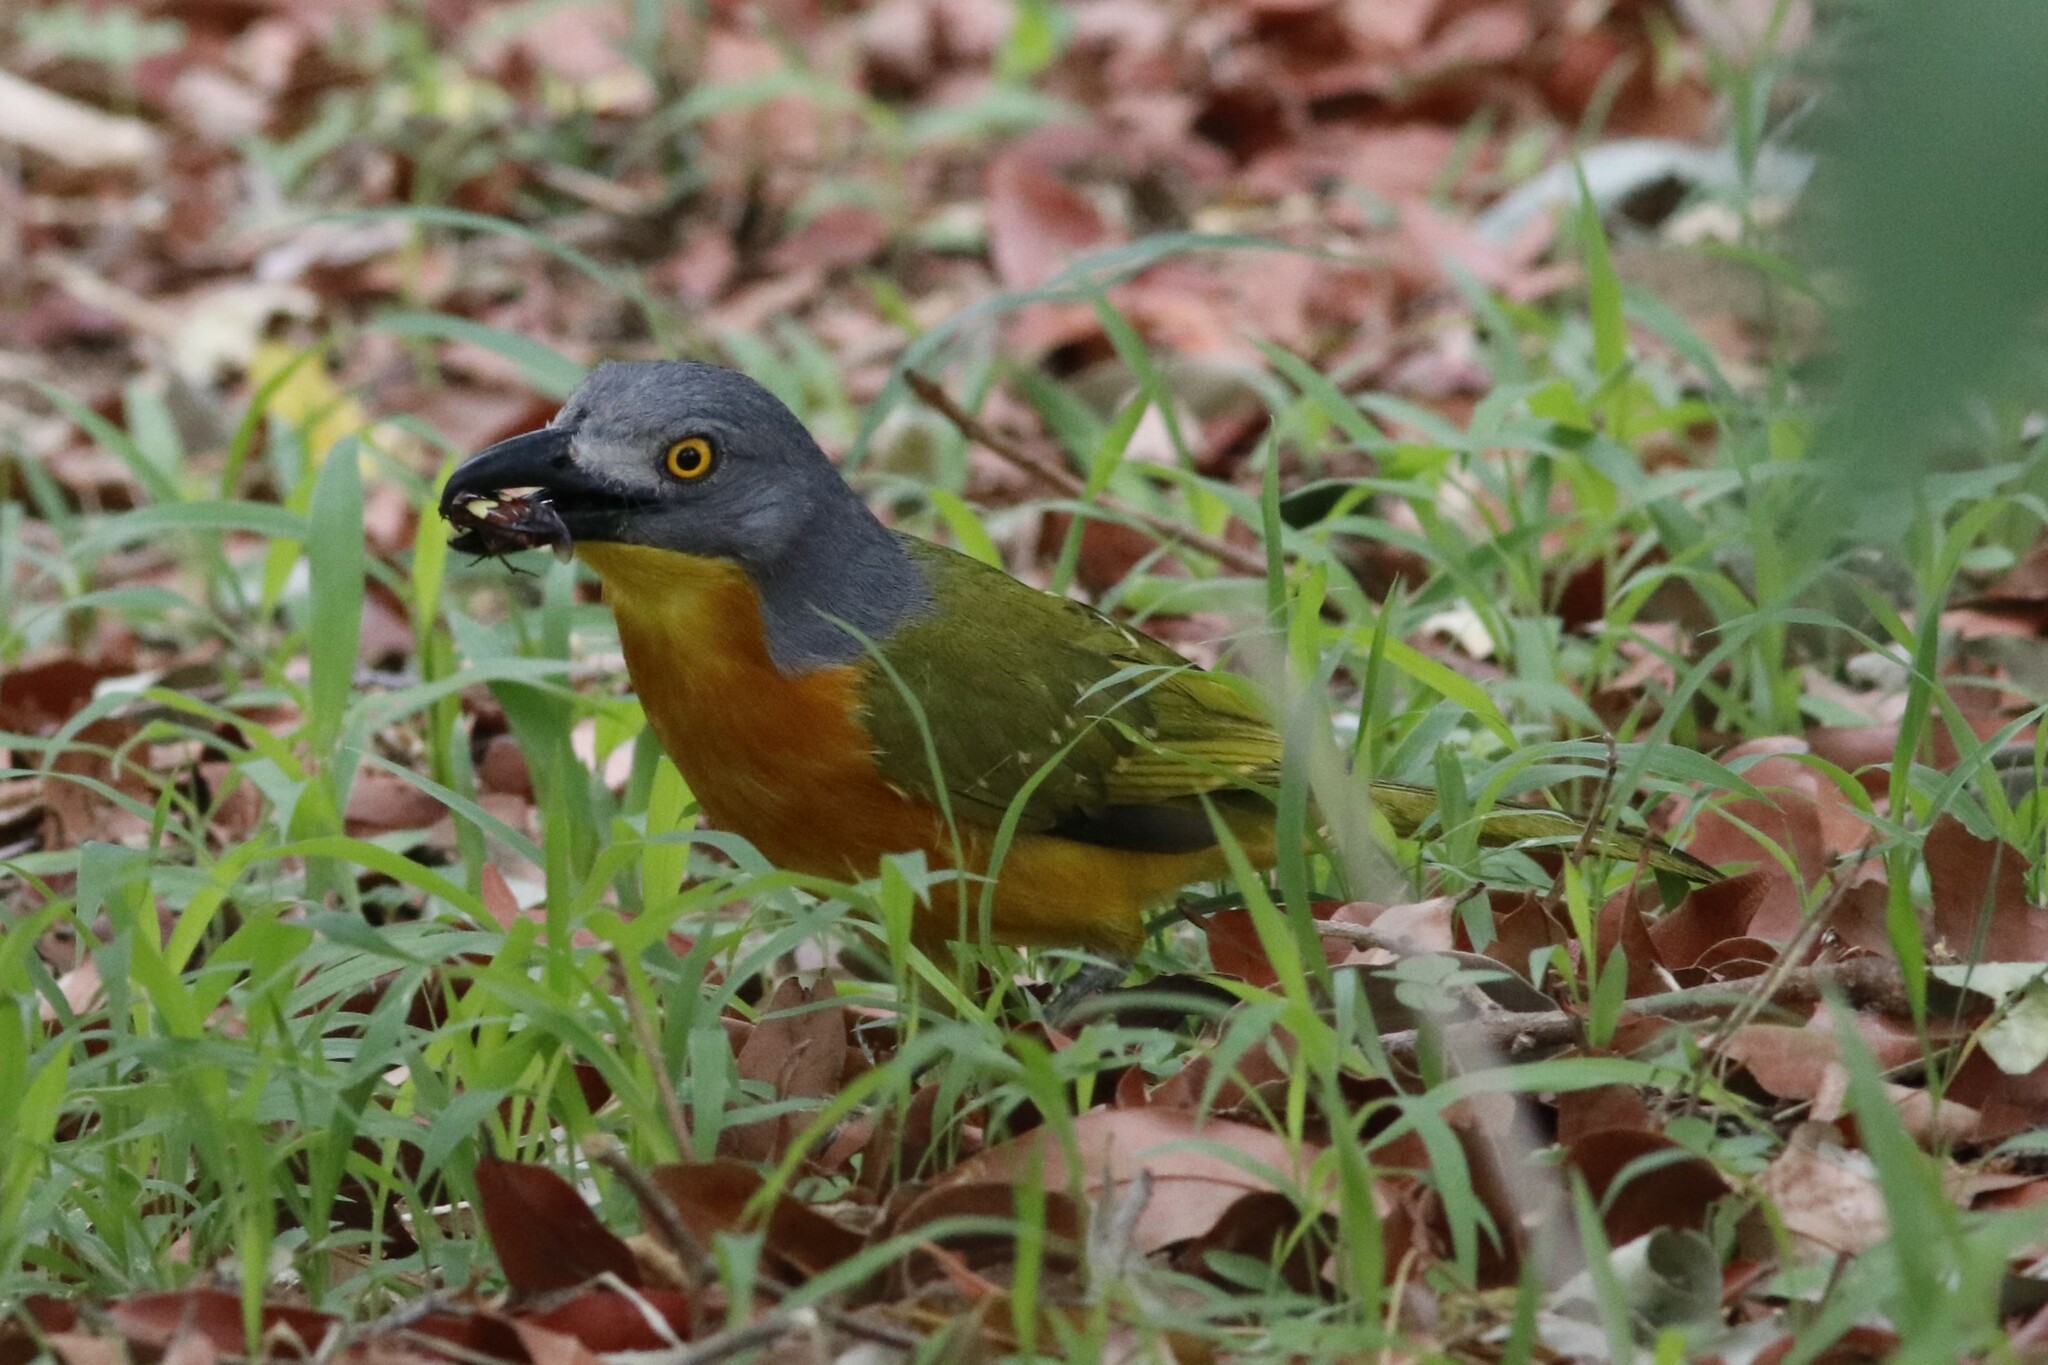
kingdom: Animalia
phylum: Chordata
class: Aves
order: Passeriformes
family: Malaconotidae
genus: Malaconotus
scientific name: Malaconotus blanchoti
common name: Grey-headed bushshrike
